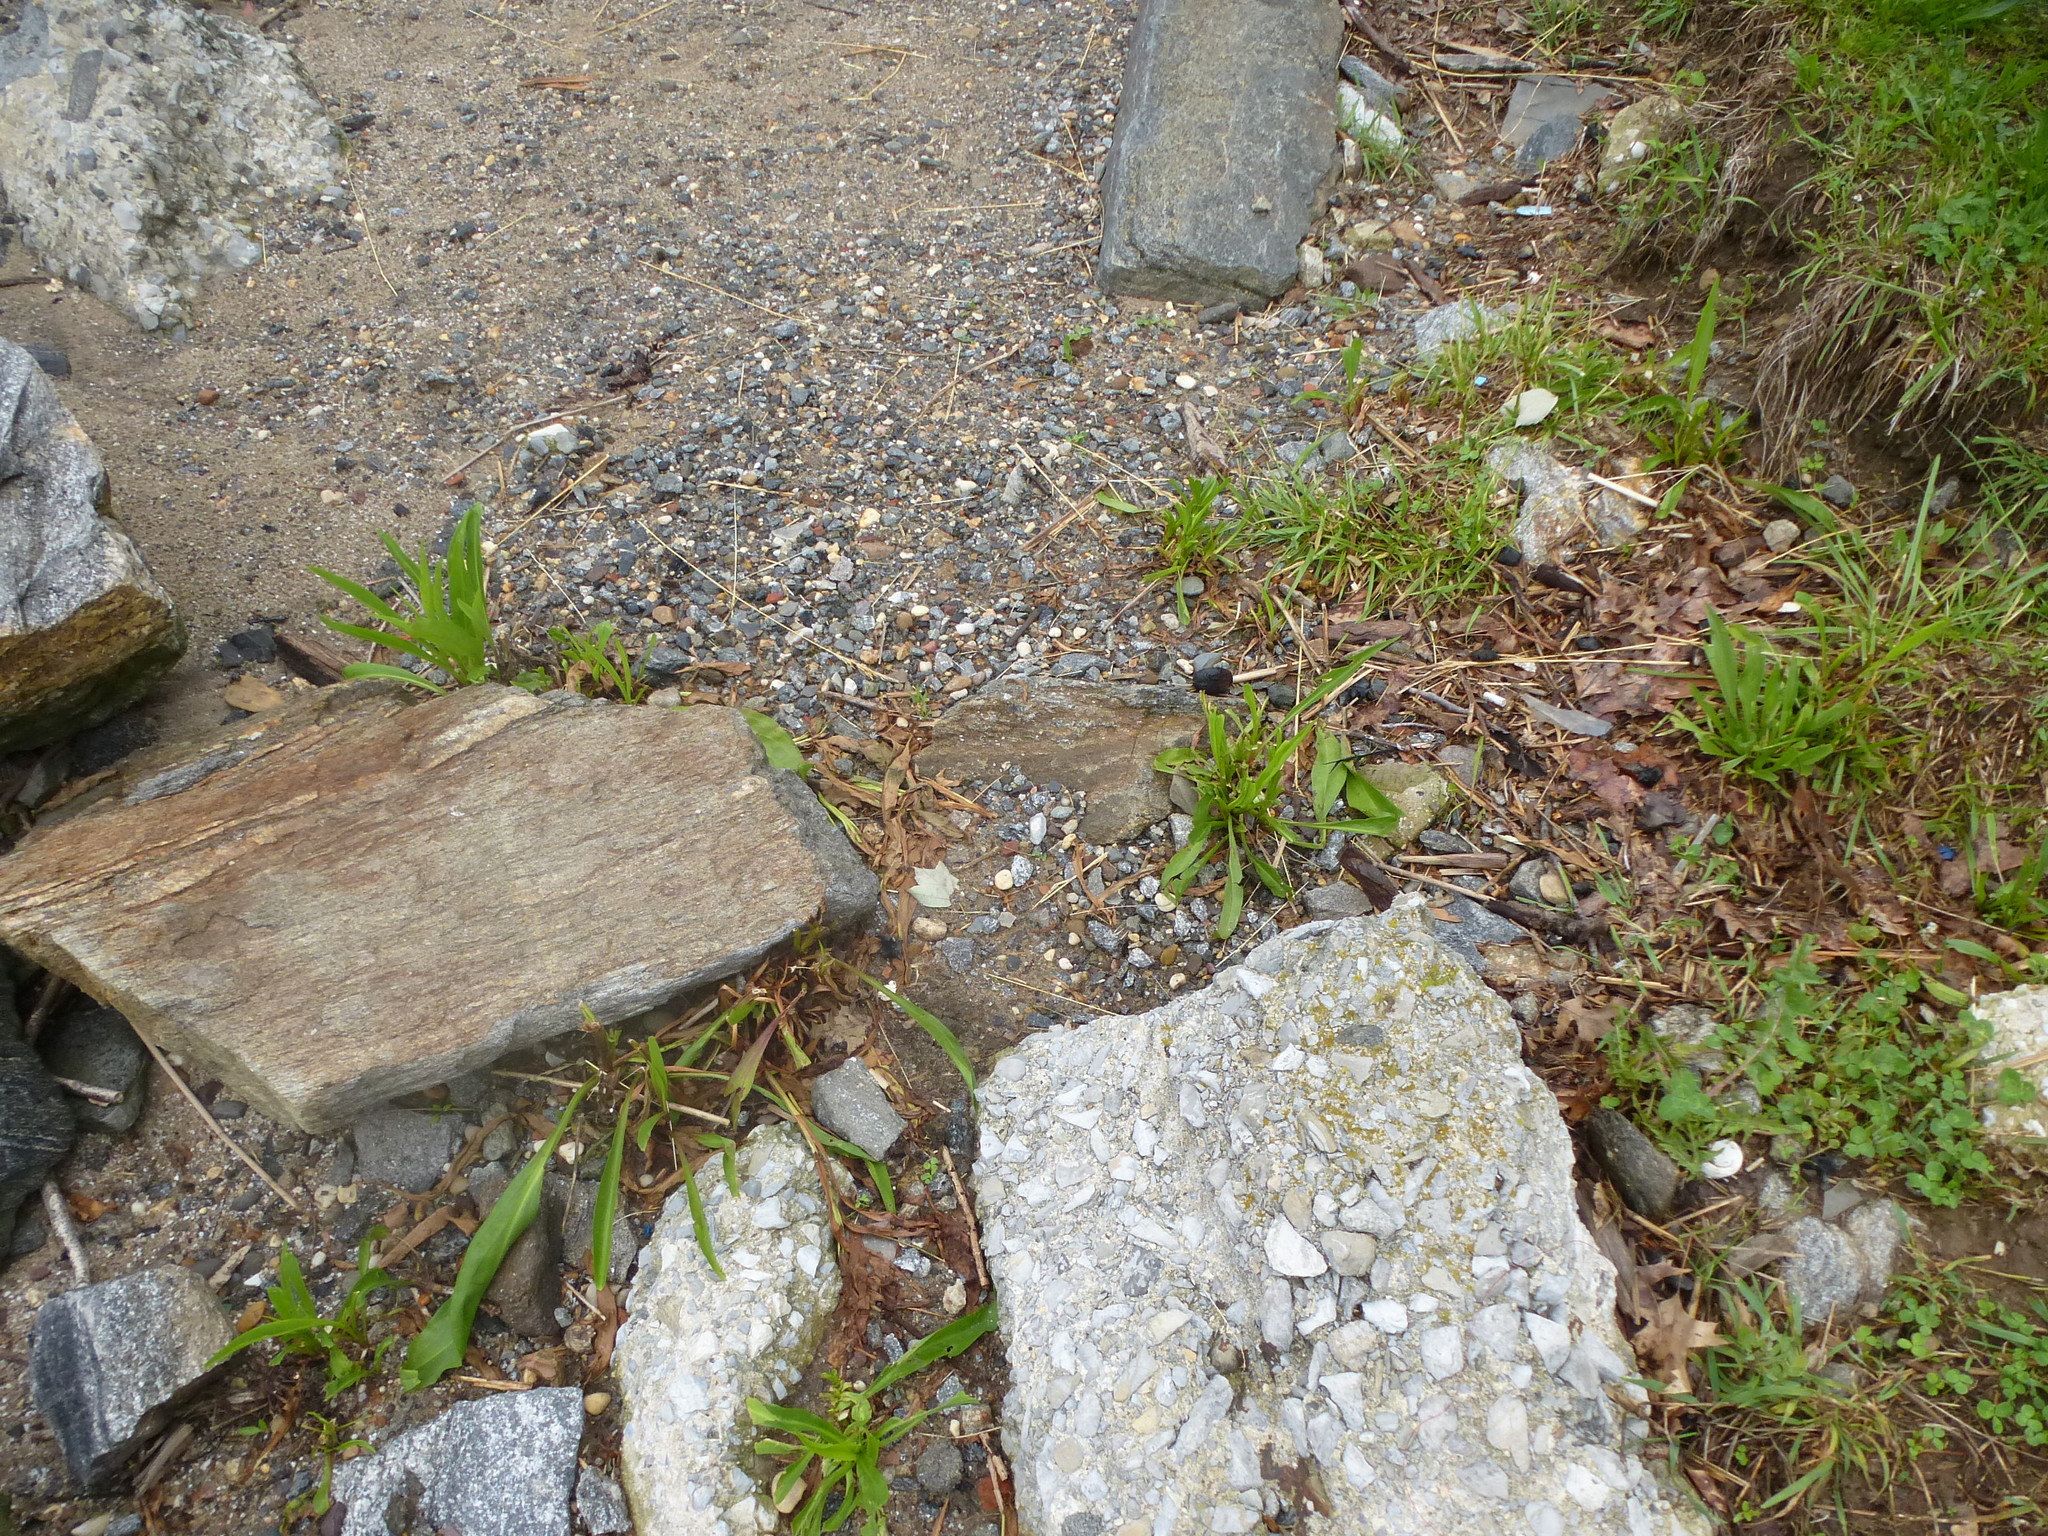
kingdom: Plantae
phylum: Tracheophyta
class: Magnoliopsida
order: Asterales
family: Asteraceae
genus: Solidago
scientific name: Solidago sempervirens
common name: Salt-marsh goldenrod
